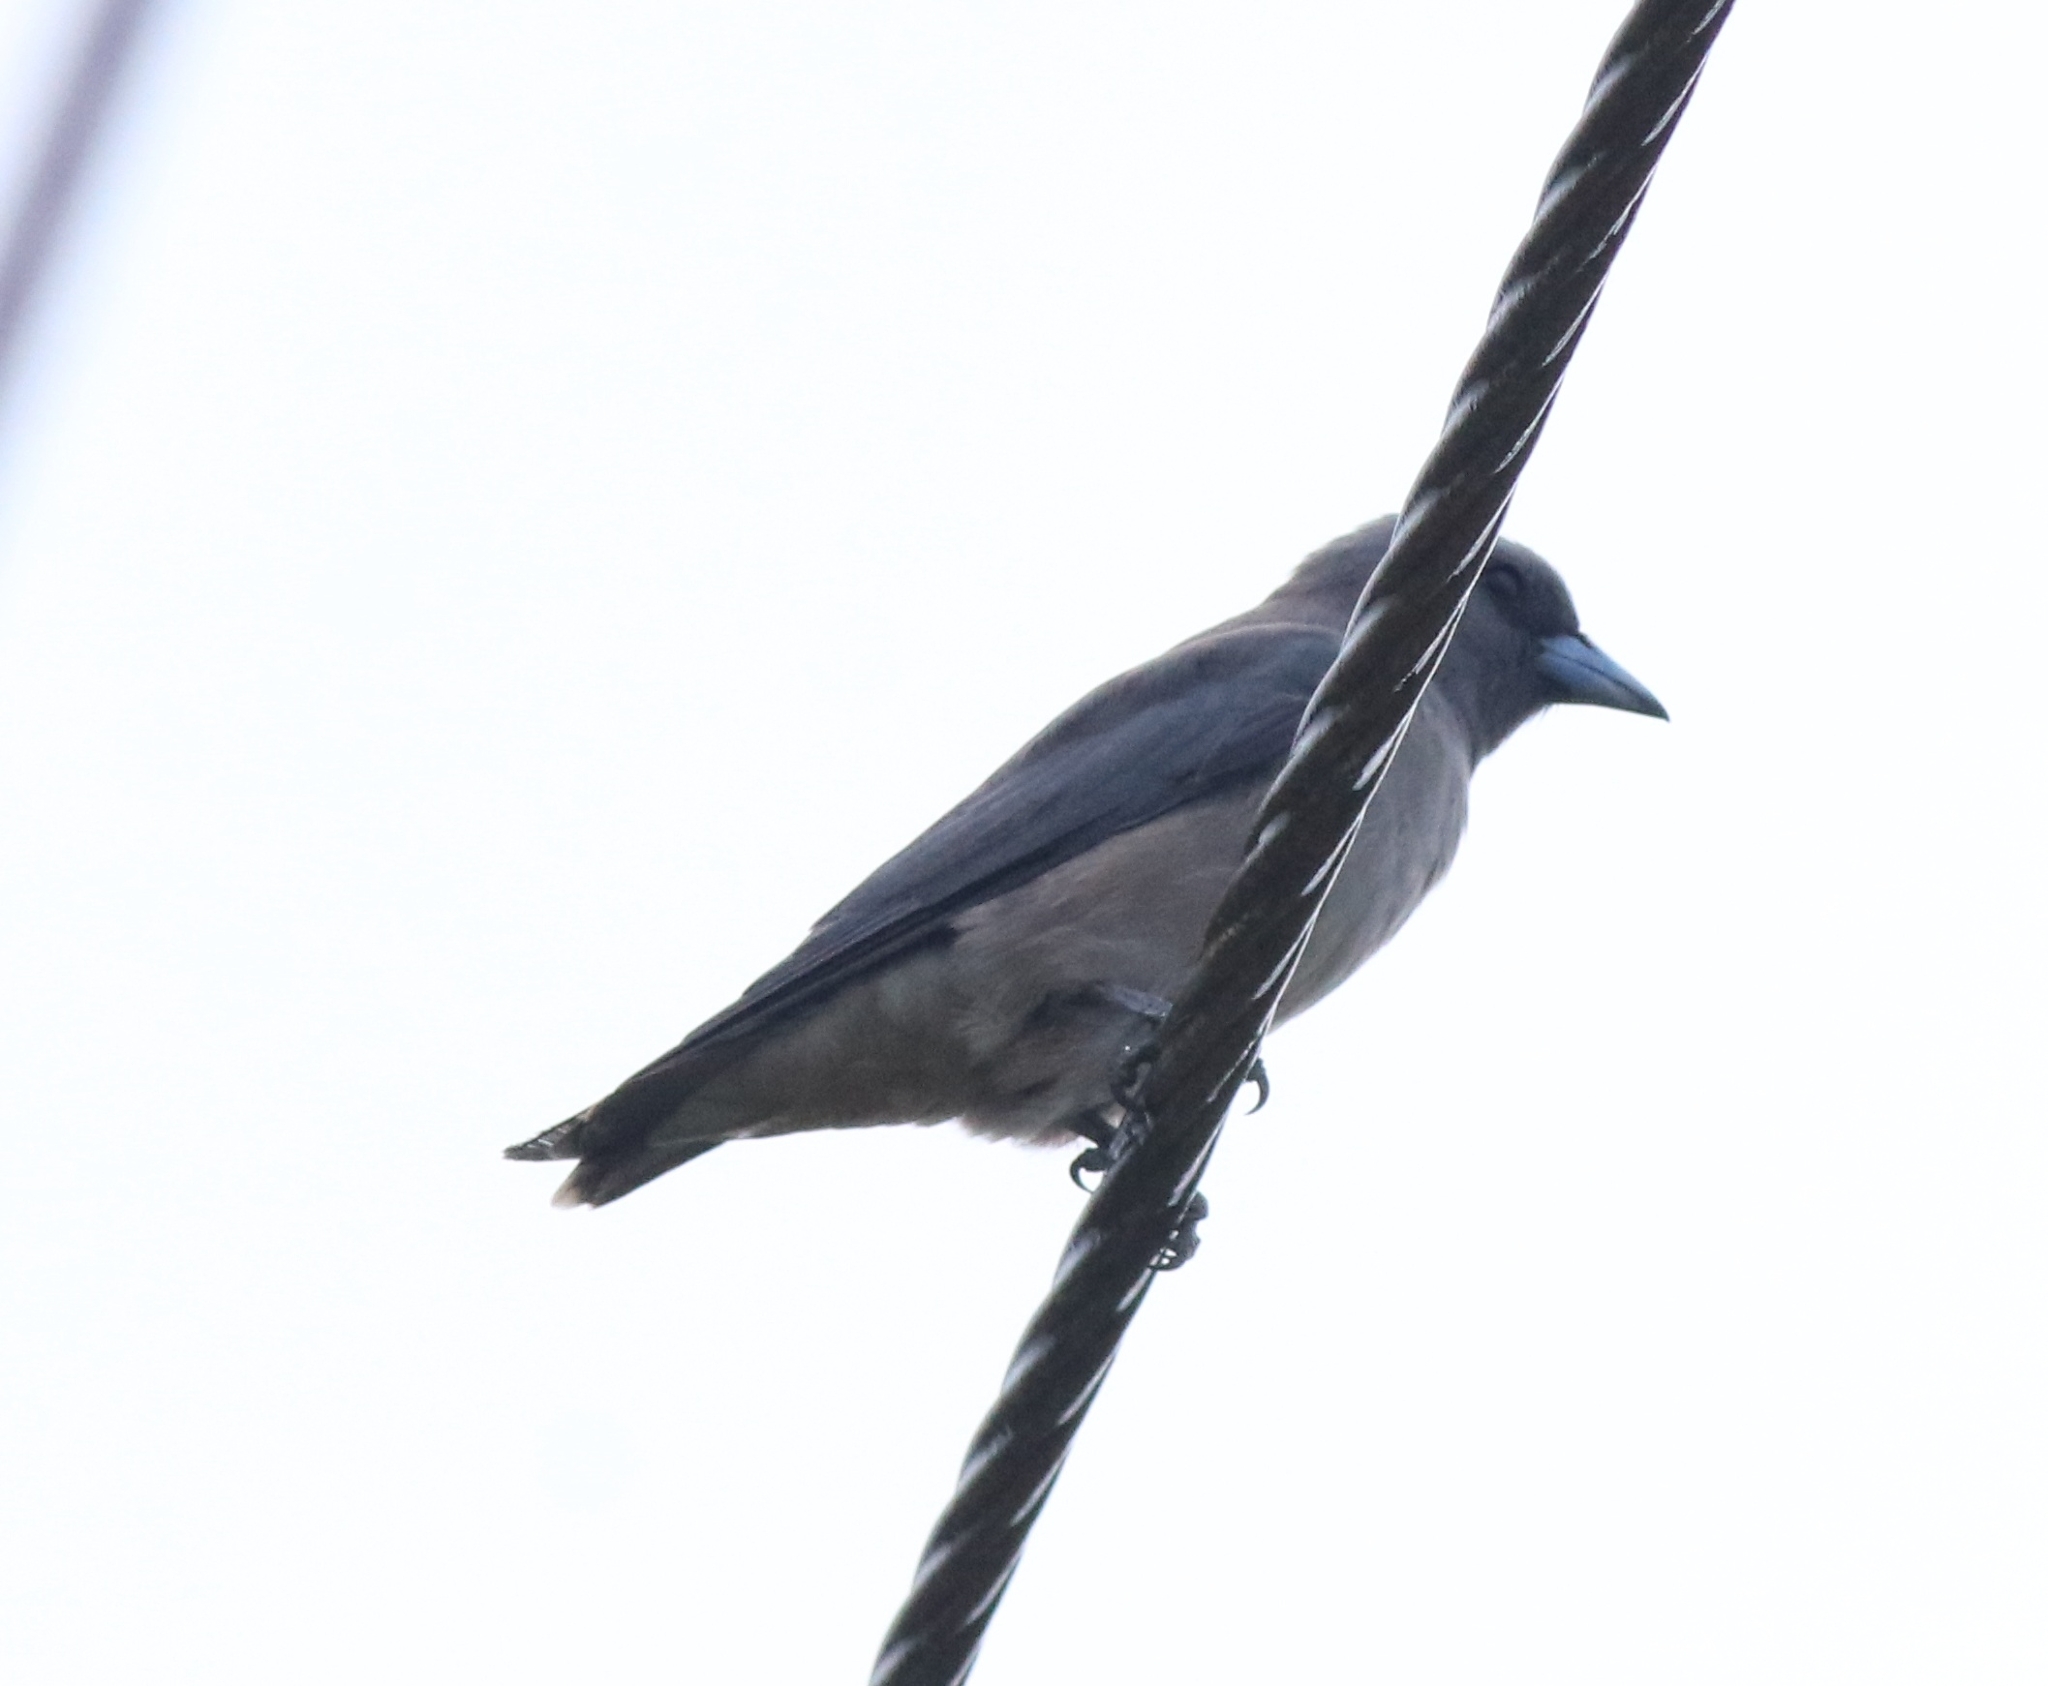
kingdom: Animalia
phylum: Chordata
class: Aves
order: Passeriformes
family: Artamidae
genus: Artamus
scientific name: Artamus fuscus
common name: Ashy woodswallow
